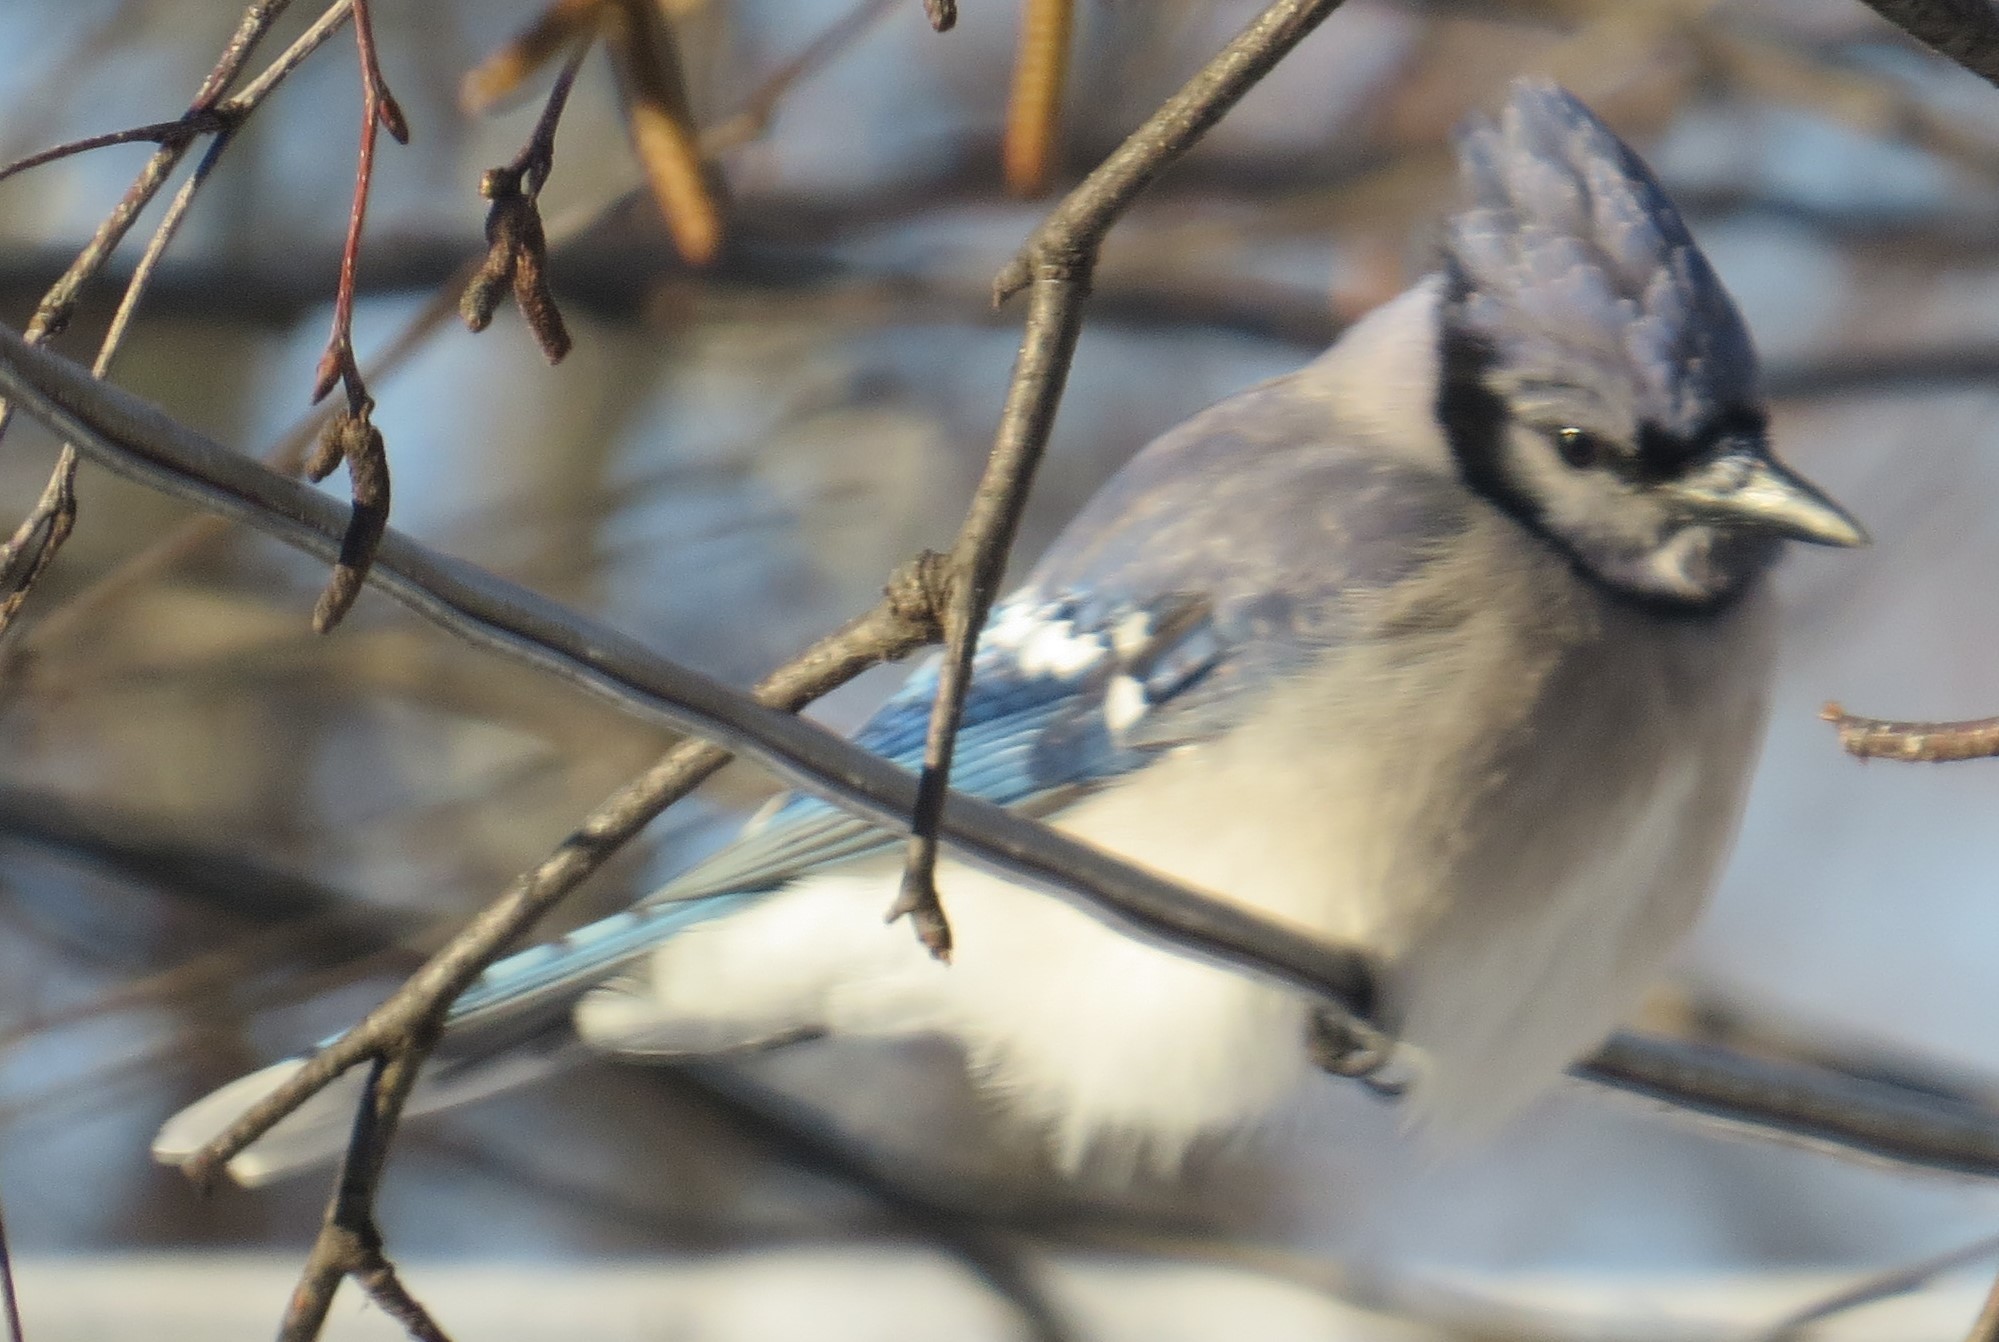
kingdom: Animalia
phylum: Chordata
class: Aves
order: Passeriformes
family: Corvidae
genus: Cyanocitta
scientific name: Cyanocitta cristata
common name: Blue jay
